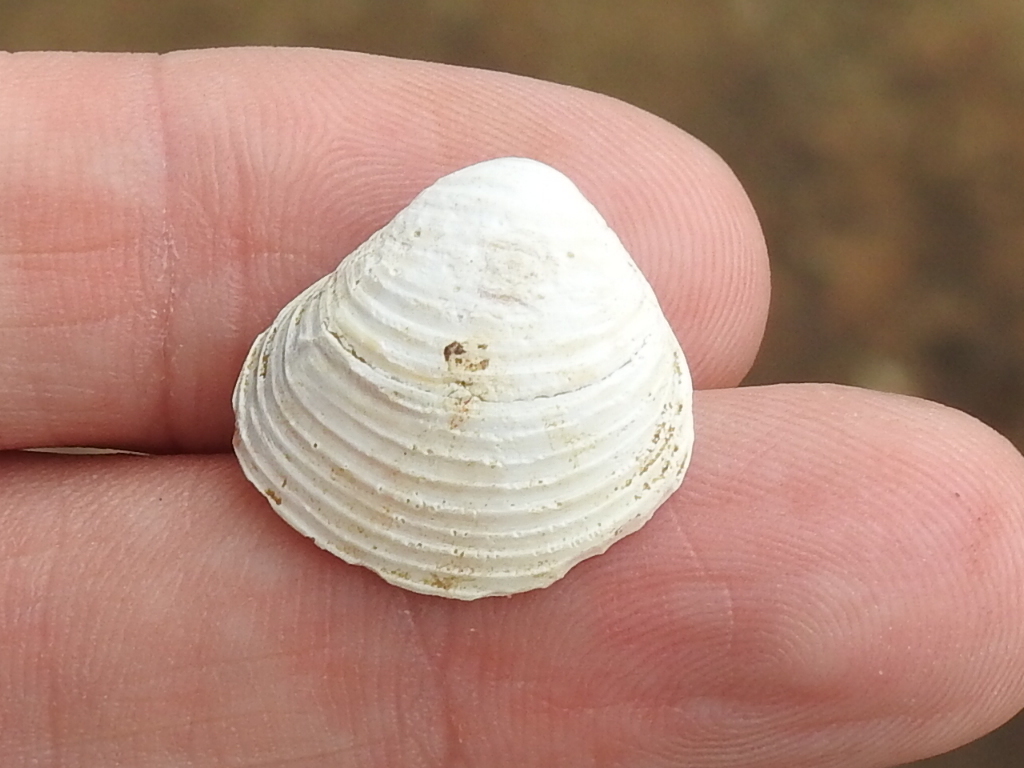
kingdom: Animalia
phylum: Mollusca
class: Bivalvia
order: Venerida
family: Cyrenidae
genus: Corbicula
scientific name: Corbicula fluminea
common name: Asian clam
